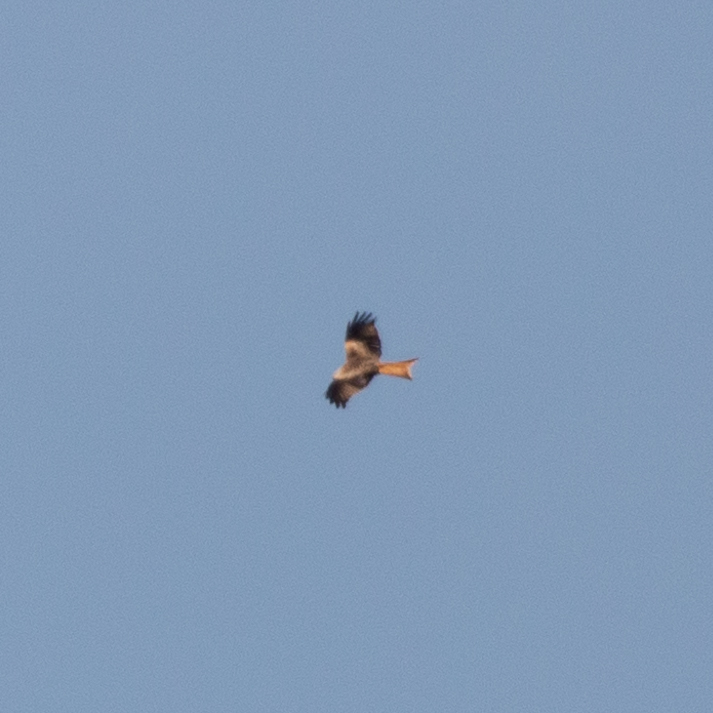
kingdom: Animalia
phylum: Chordata
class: Aves
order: Accipitriformes
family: Accipitridae
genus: Milvus
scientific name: Milvus milvus
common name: Red kite
